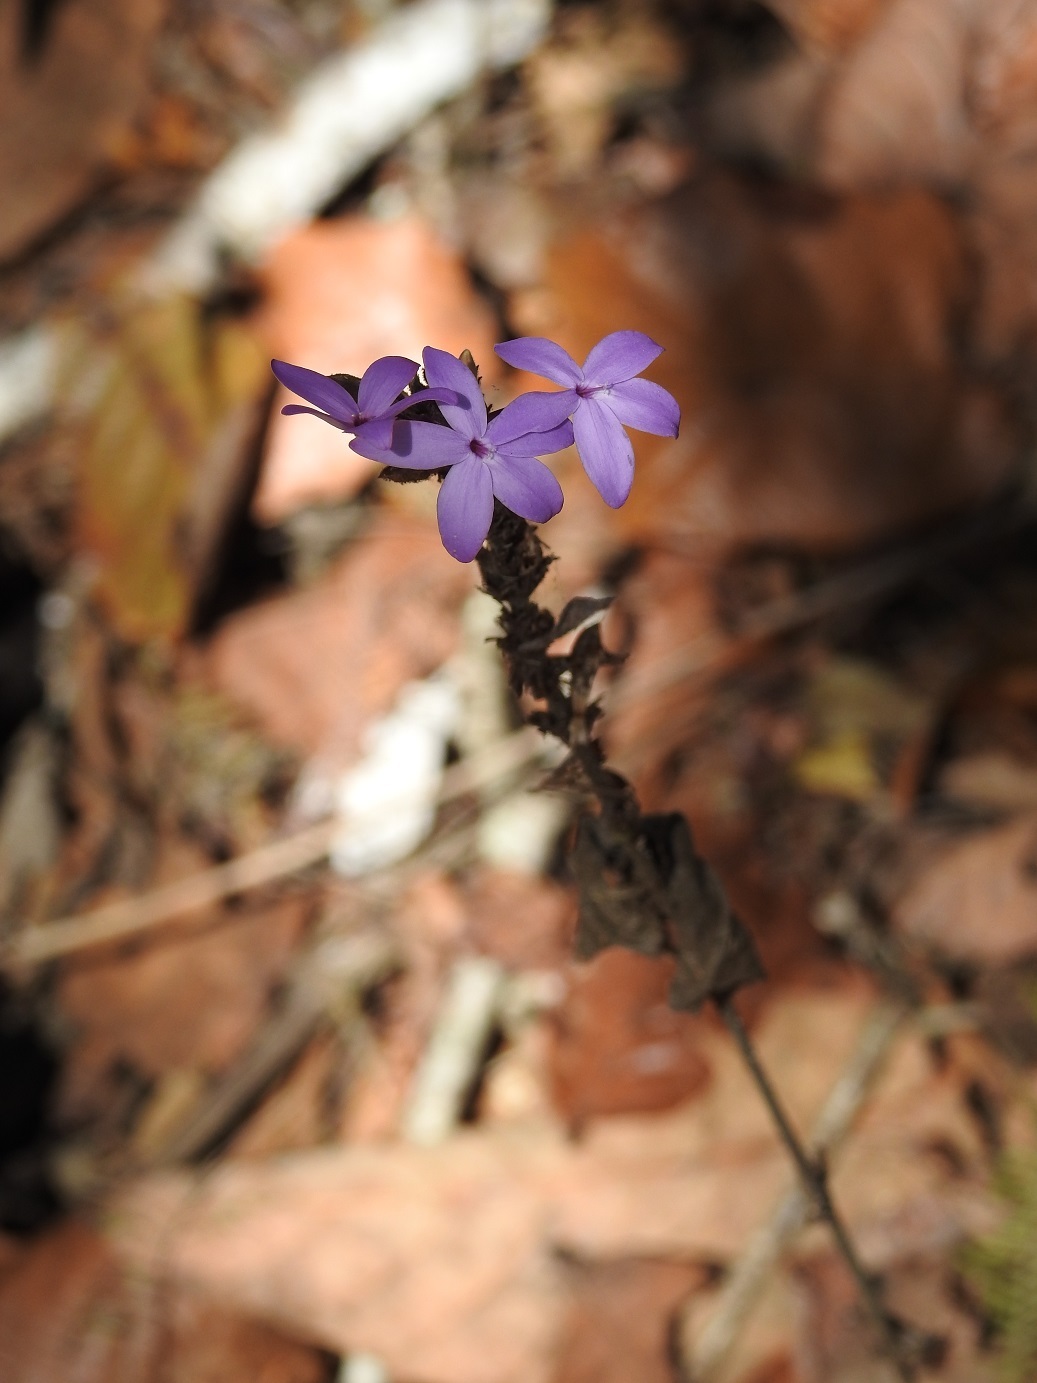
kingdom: Plantae
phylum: Tracheophyta
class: Magnoliopsida
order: Lamiales
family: Acanthaceae
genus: Pseuderanthemum
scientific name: Pseuderanthemum alatum
